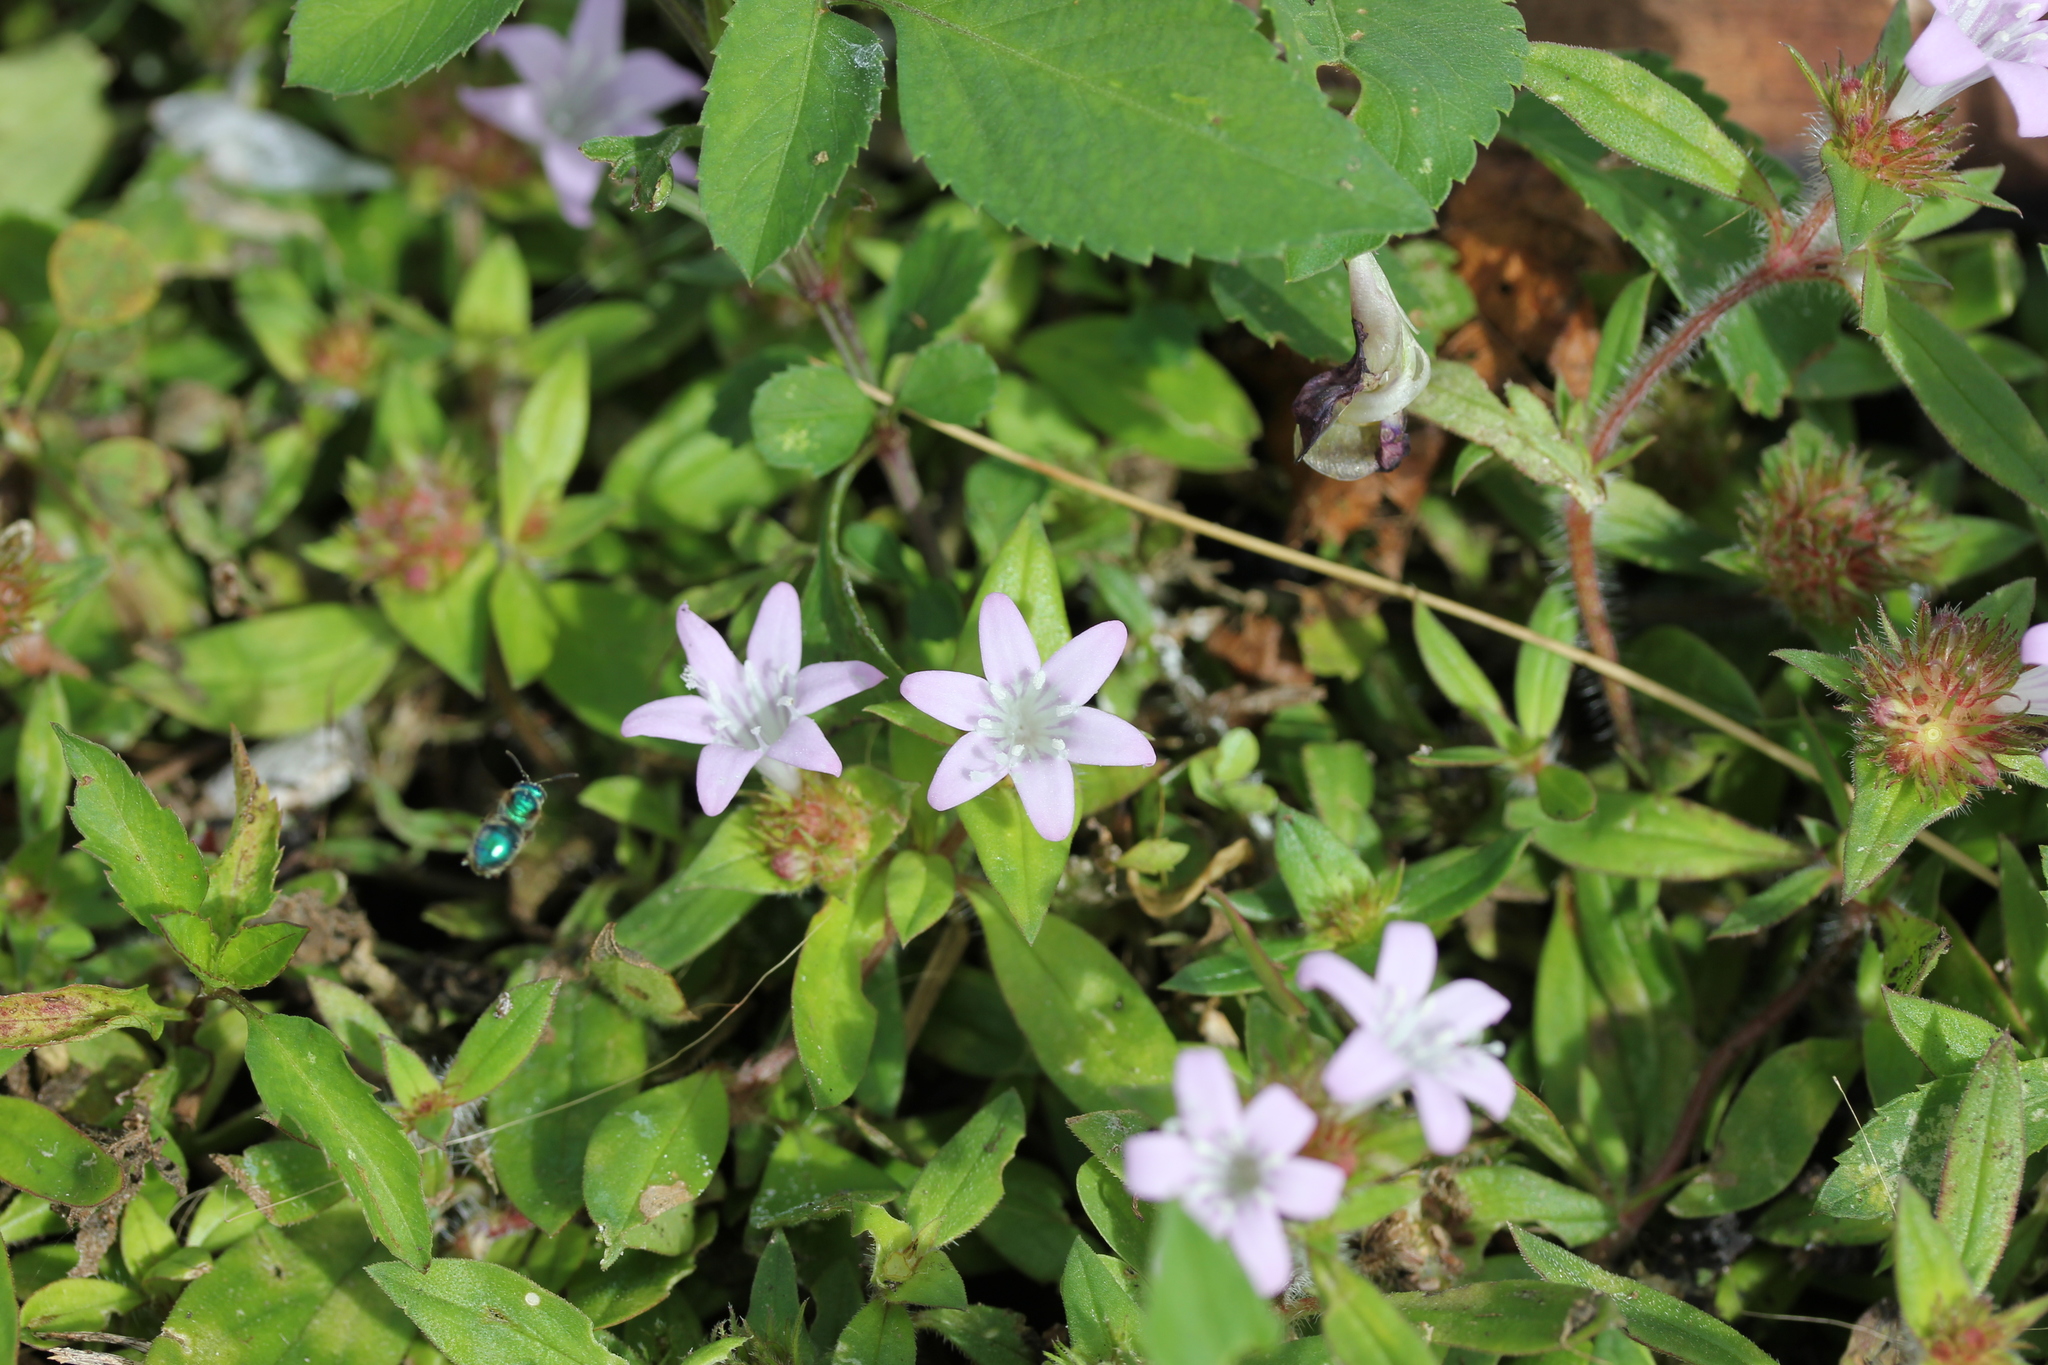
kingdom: Plantae
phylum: Tracheophyta
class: Magnoliopsida
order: Gentianales
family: Rubiaceae
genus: Richardia
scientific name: Richardia grandiflora
